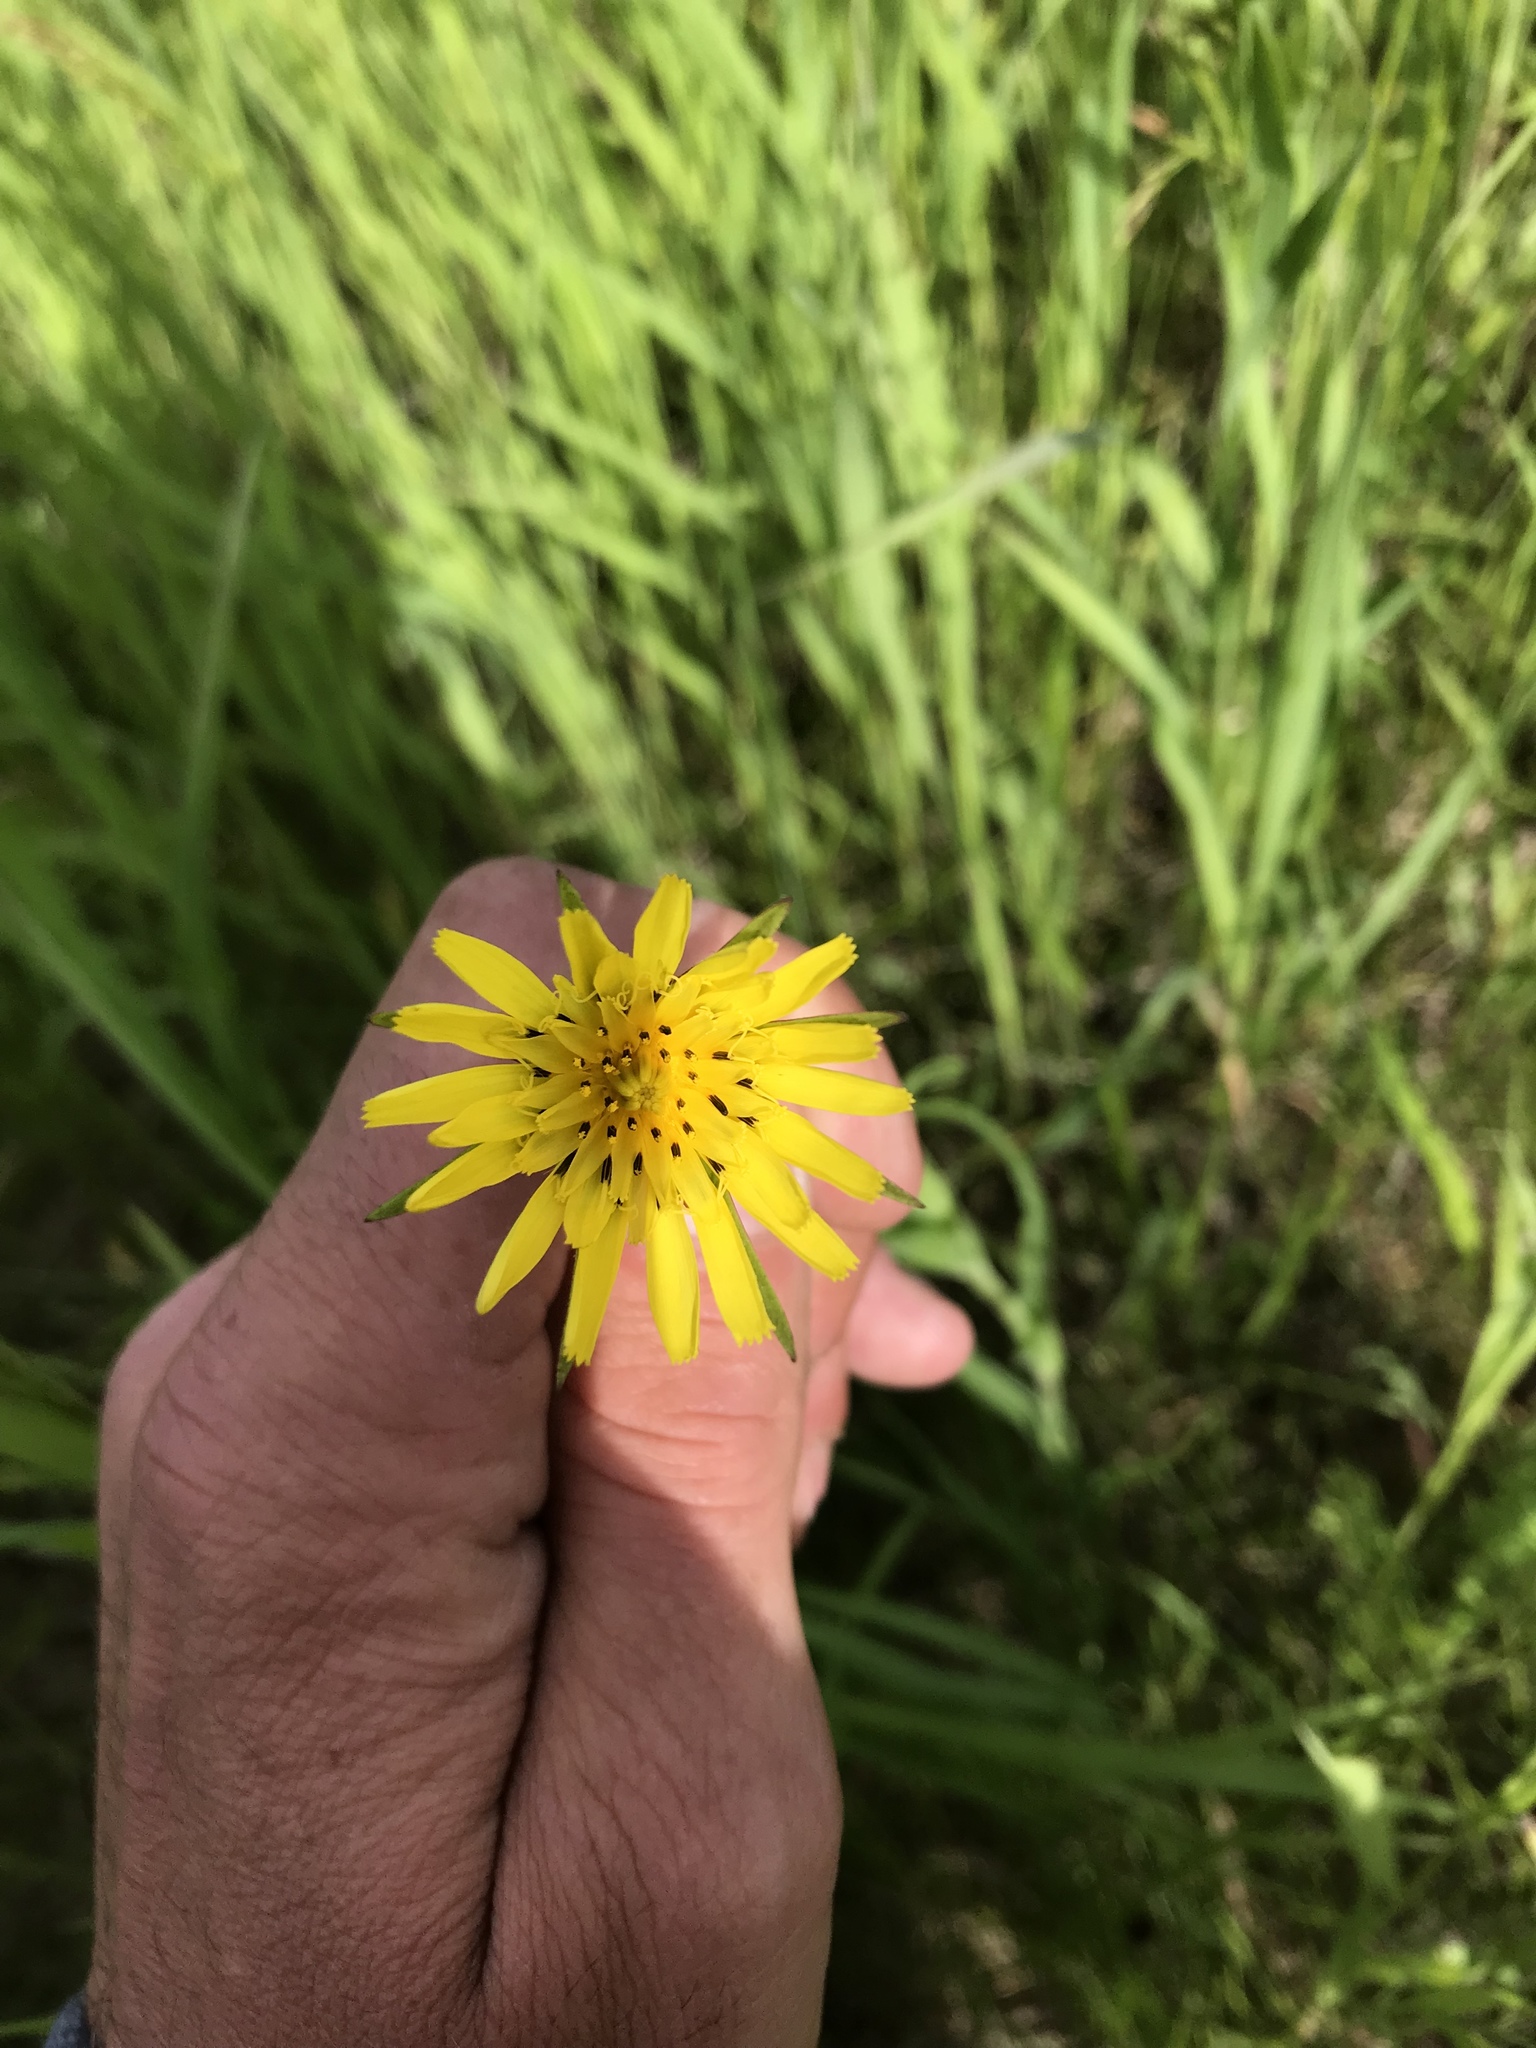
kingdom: Plantae
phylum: Tracheophyta
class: Magnoliopsida
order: Asterales
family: Asteraceae
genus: Tragopogon
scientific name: Tragopogon pratensis
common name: Goat's-beard
